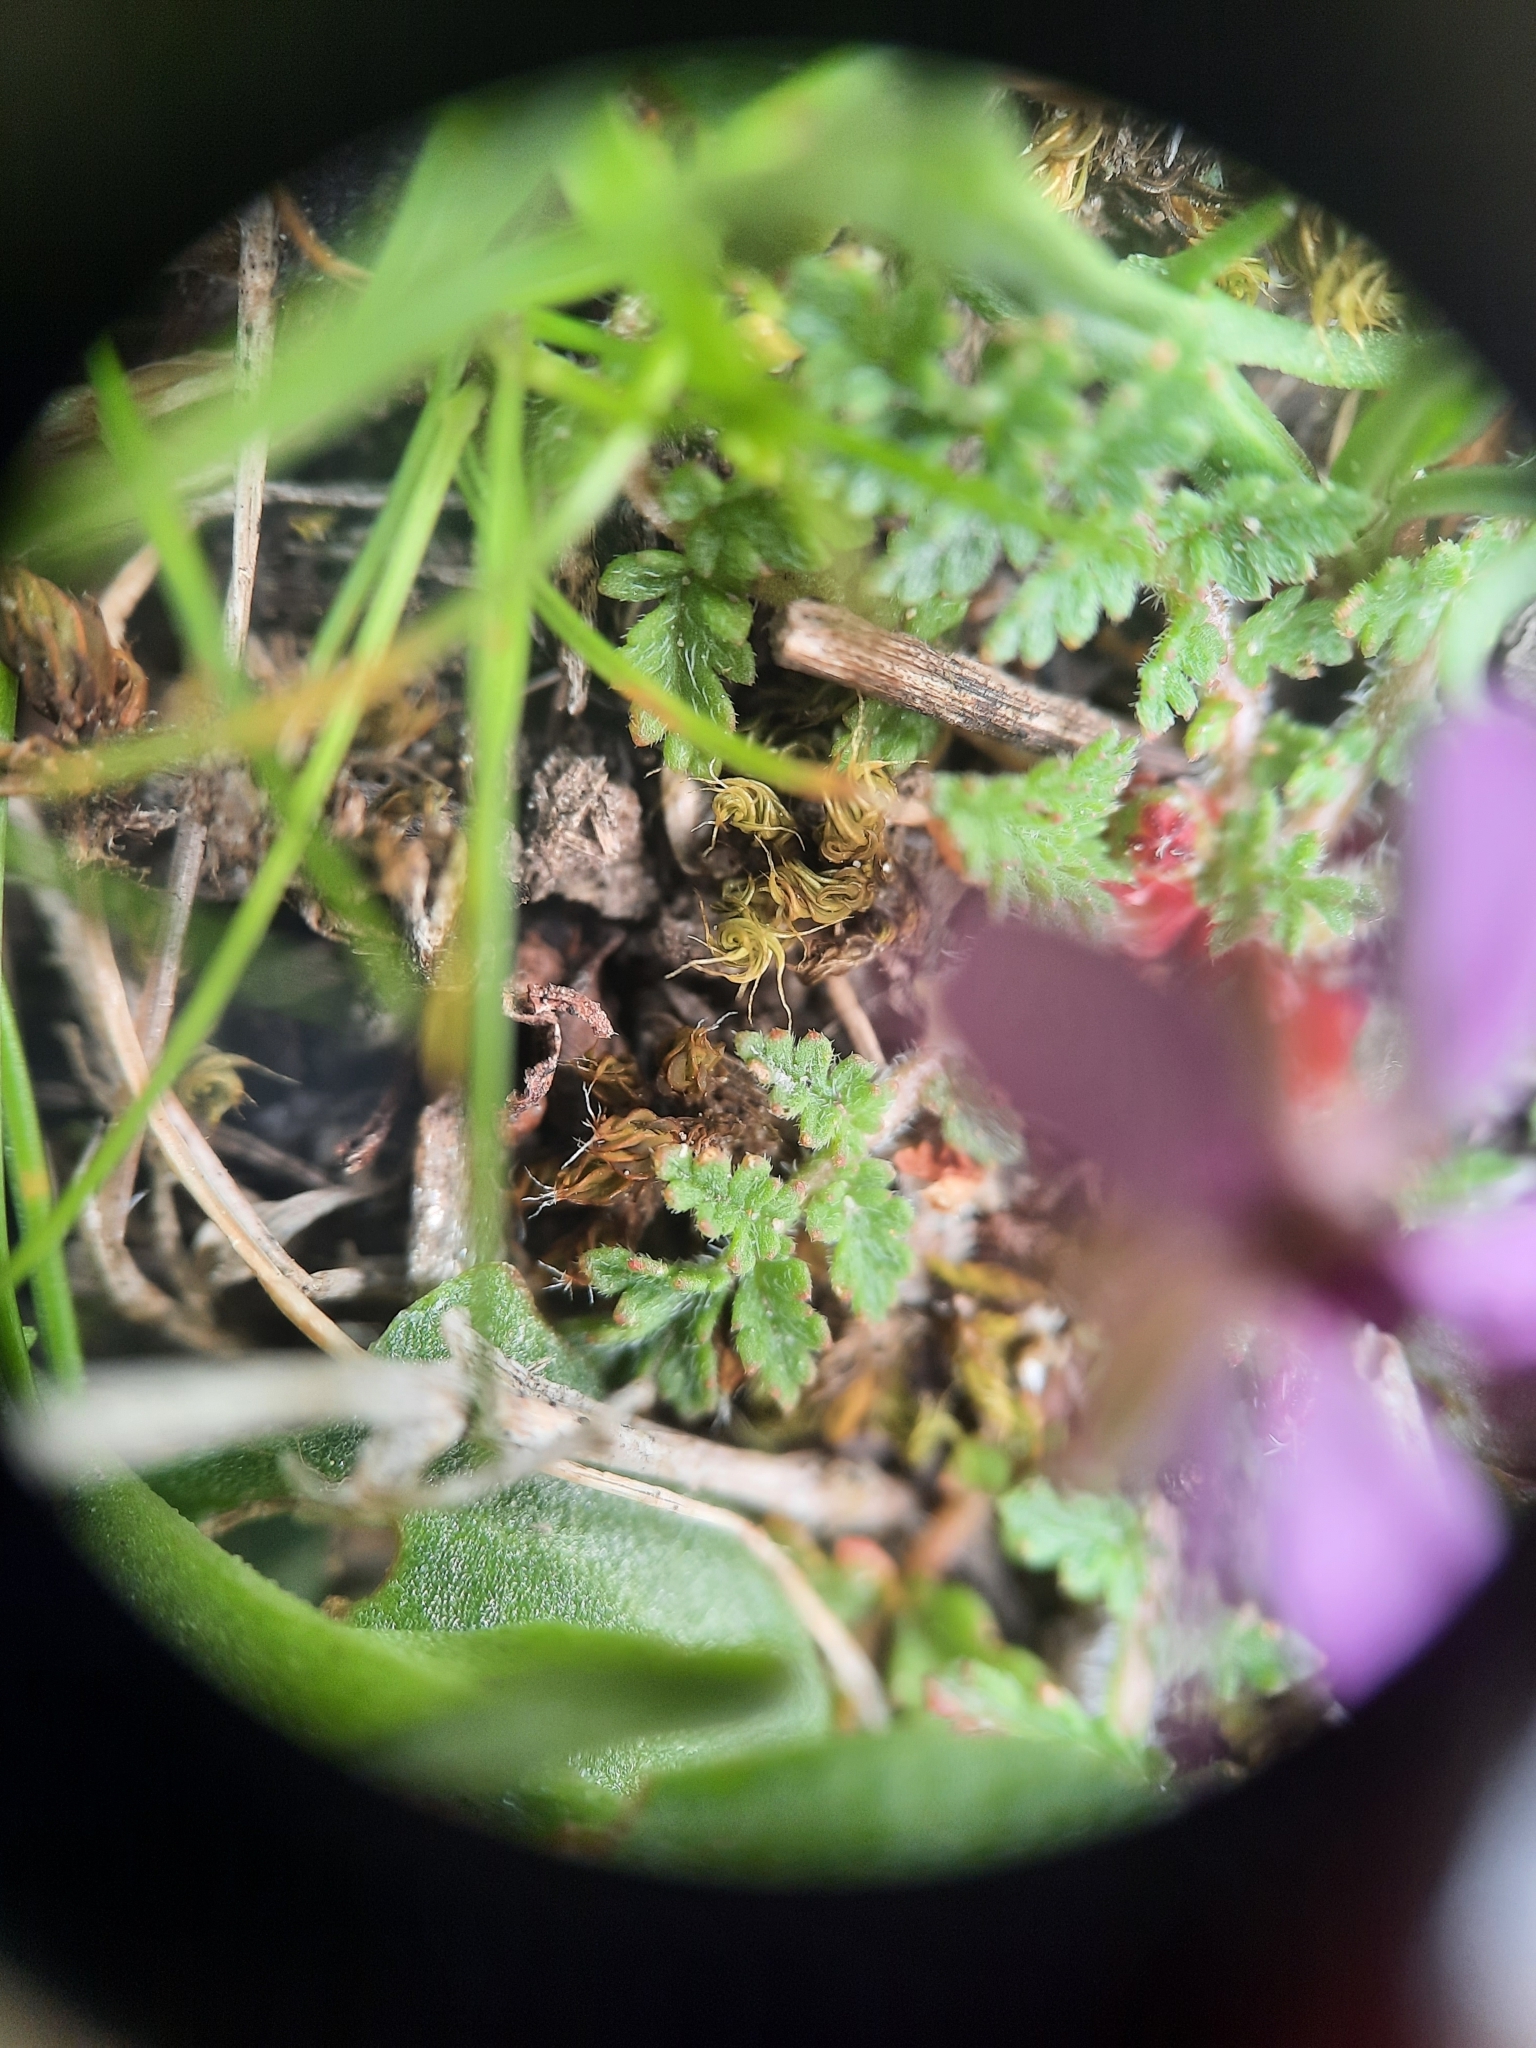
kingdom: Plantae
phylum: Tracheophyta
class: Magnoliopsida
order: Geraniales
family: Geraniaceae
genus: Erodium
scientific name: Erodium cicutarium
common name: Common stork's-bill
